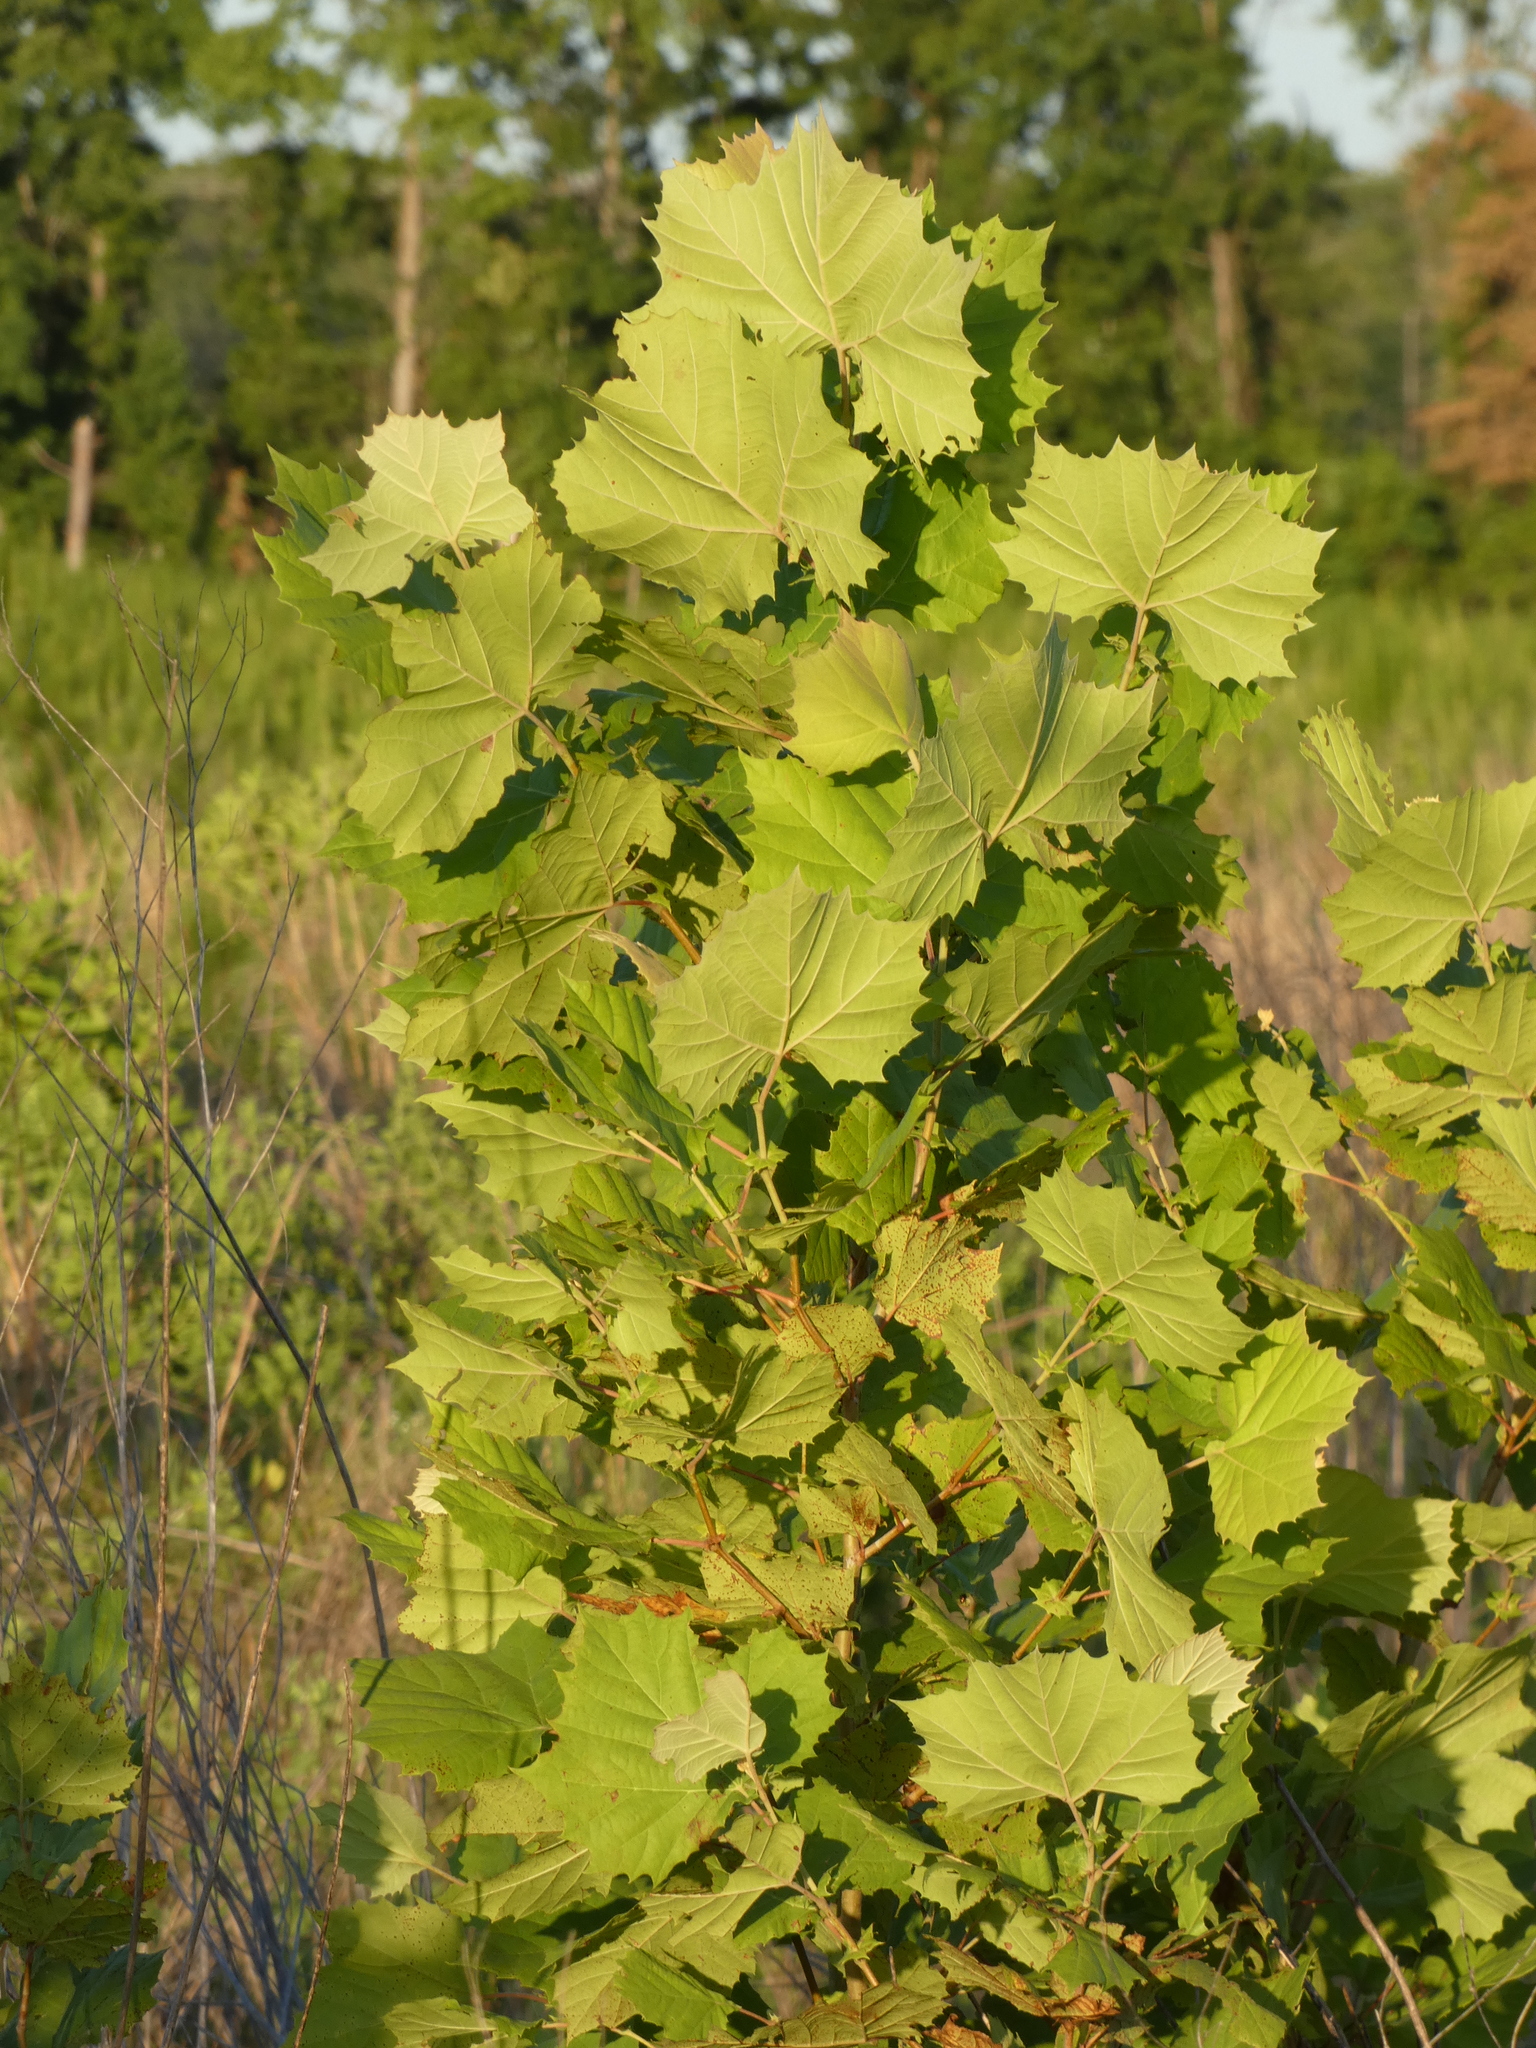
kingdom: Plantae
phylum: Tracheophyta
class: Magnoliopsida
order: Proteales
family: Platanaceae
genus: Platanus
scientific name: Platanus occidentalis
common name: American sycamore
